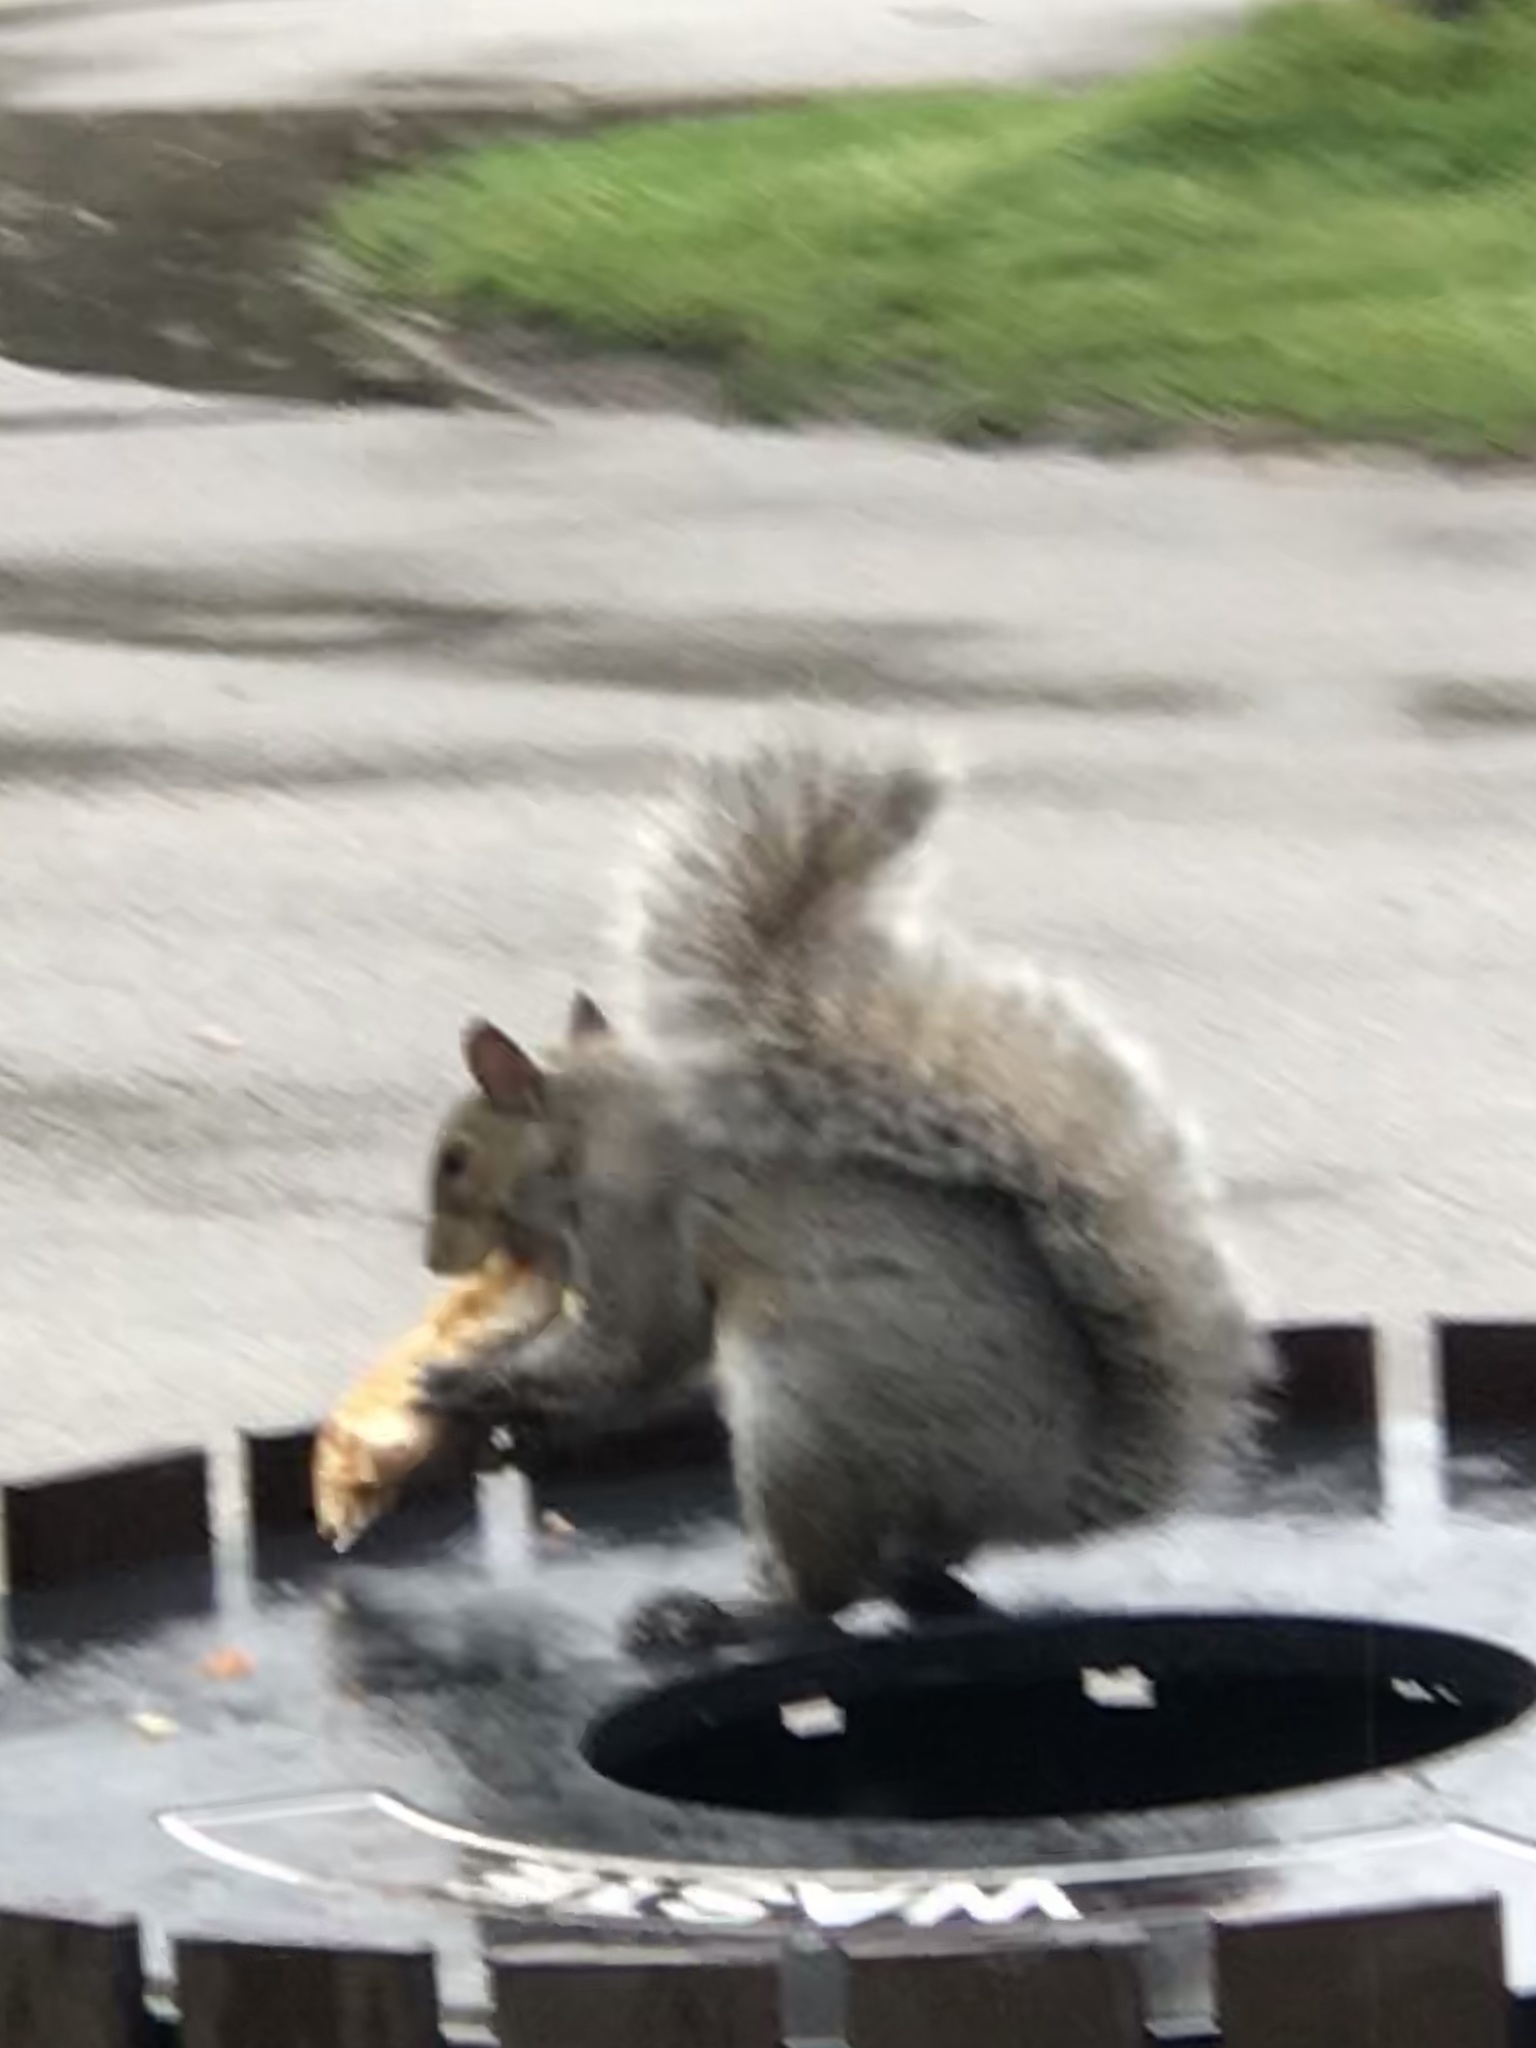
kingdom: Animalia
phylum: Chordata
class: Mammalia
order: Rodentia
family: Sciuridae
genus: Sciurus
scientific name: Sciurus carolinensis
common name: Eastern gray squirrel
